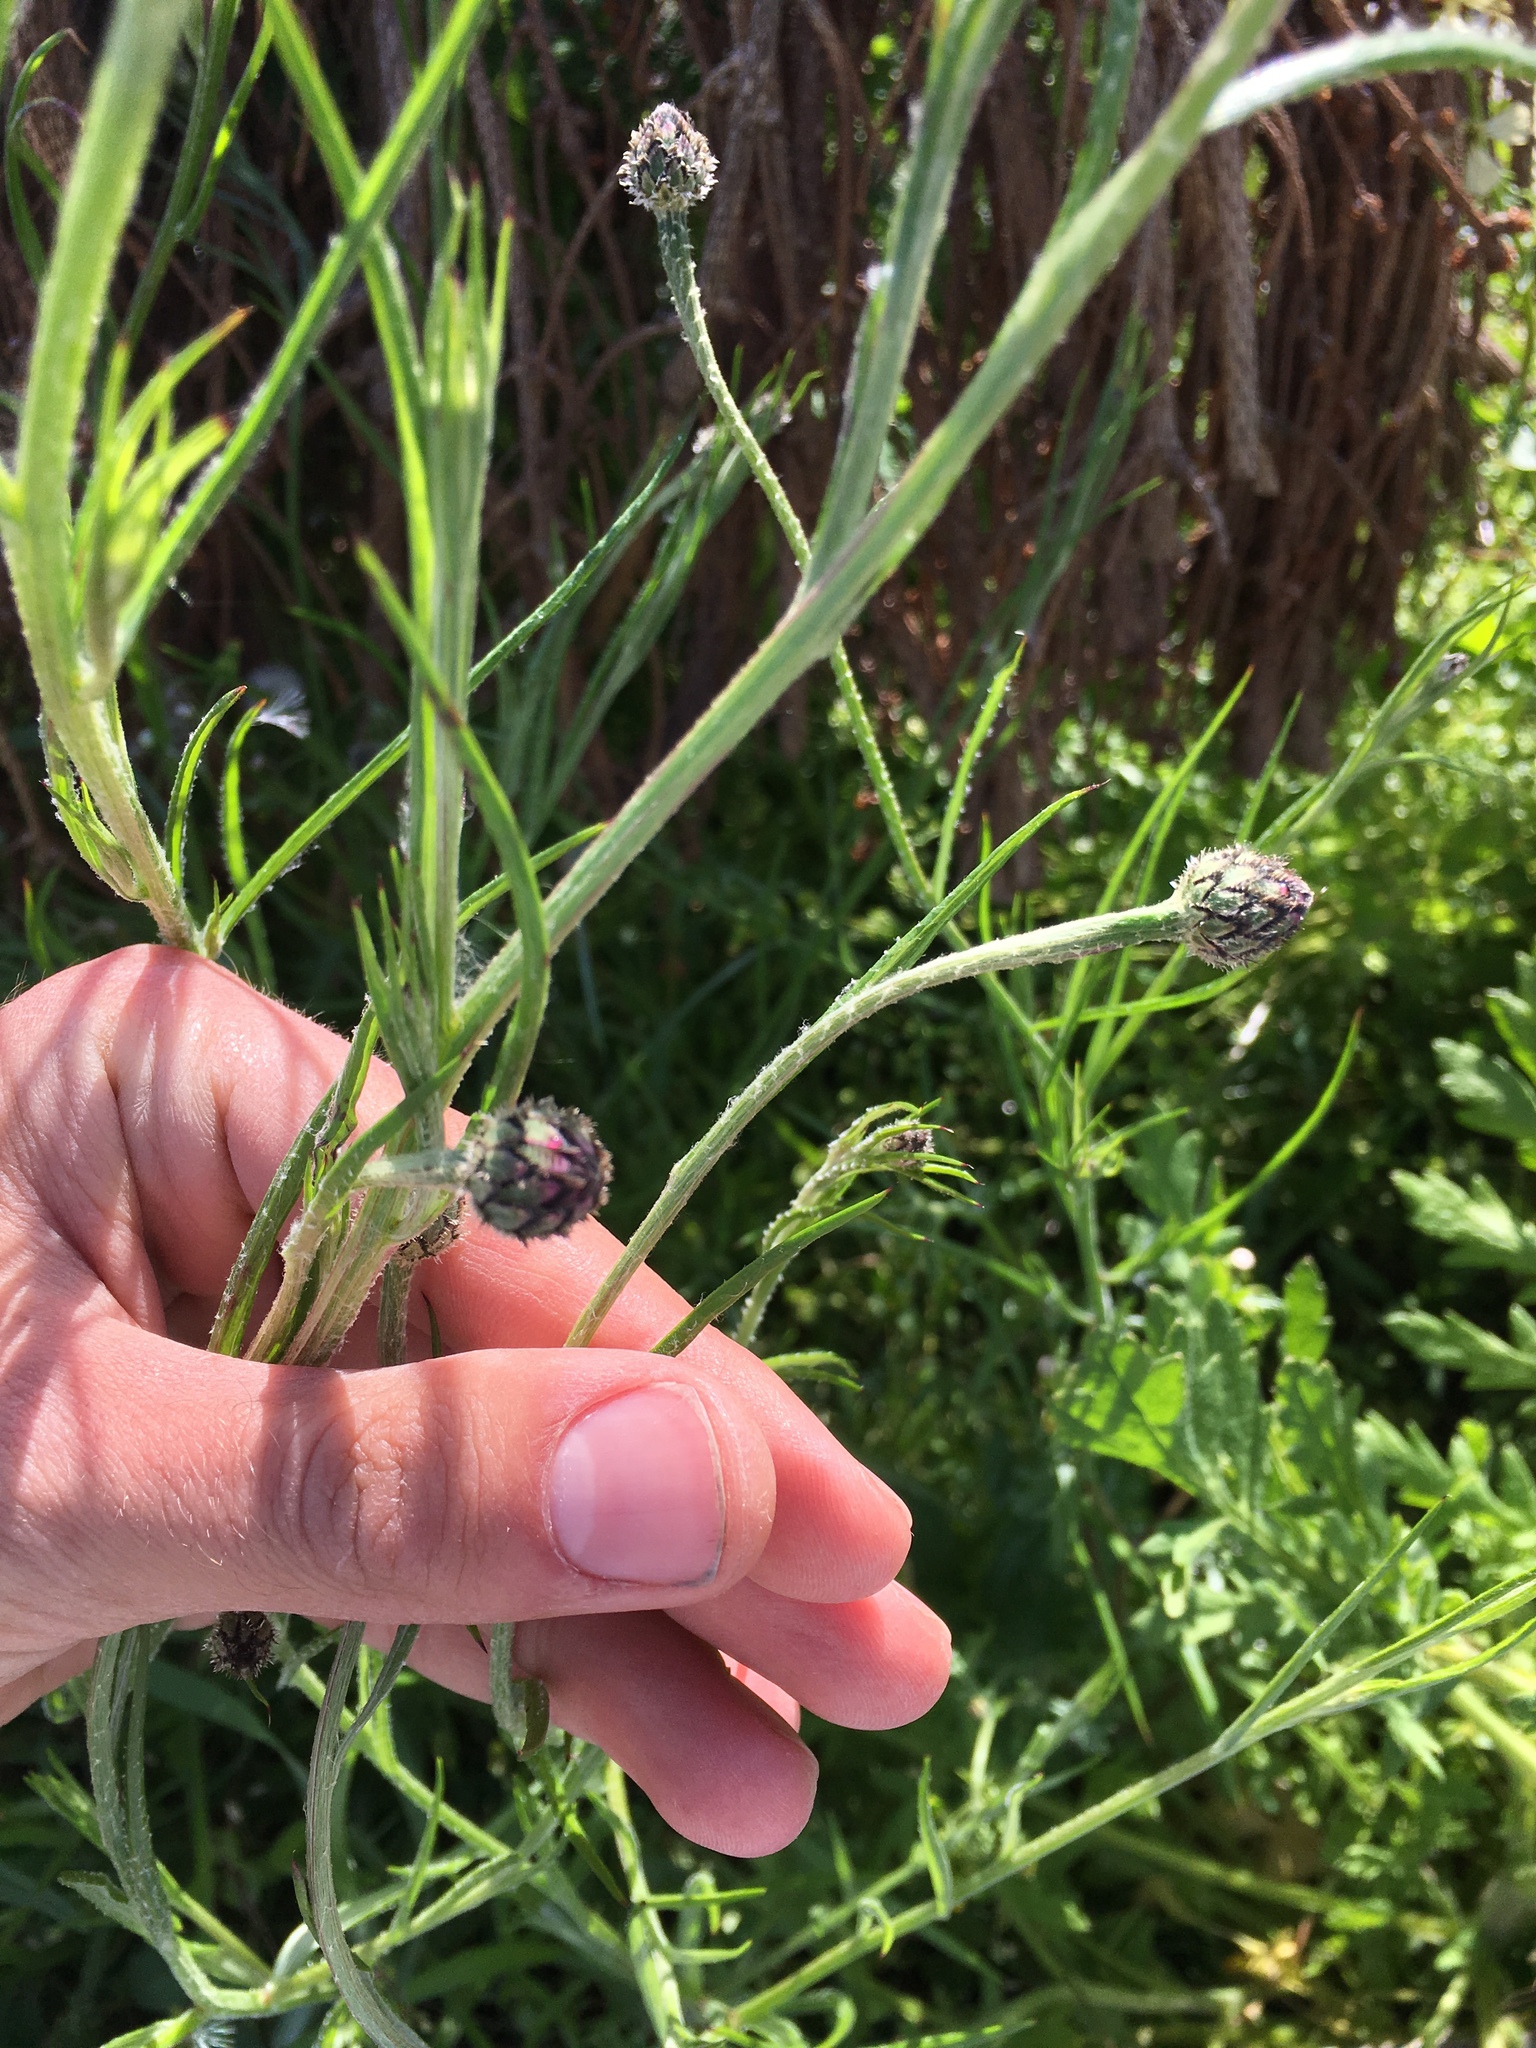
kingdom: Plantae
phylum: Tracheophyta
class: Magnoliopsida
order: Asterales
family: Asteraceae
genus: Centaurea
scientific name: Centaurea cyanus
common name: Cornflower
